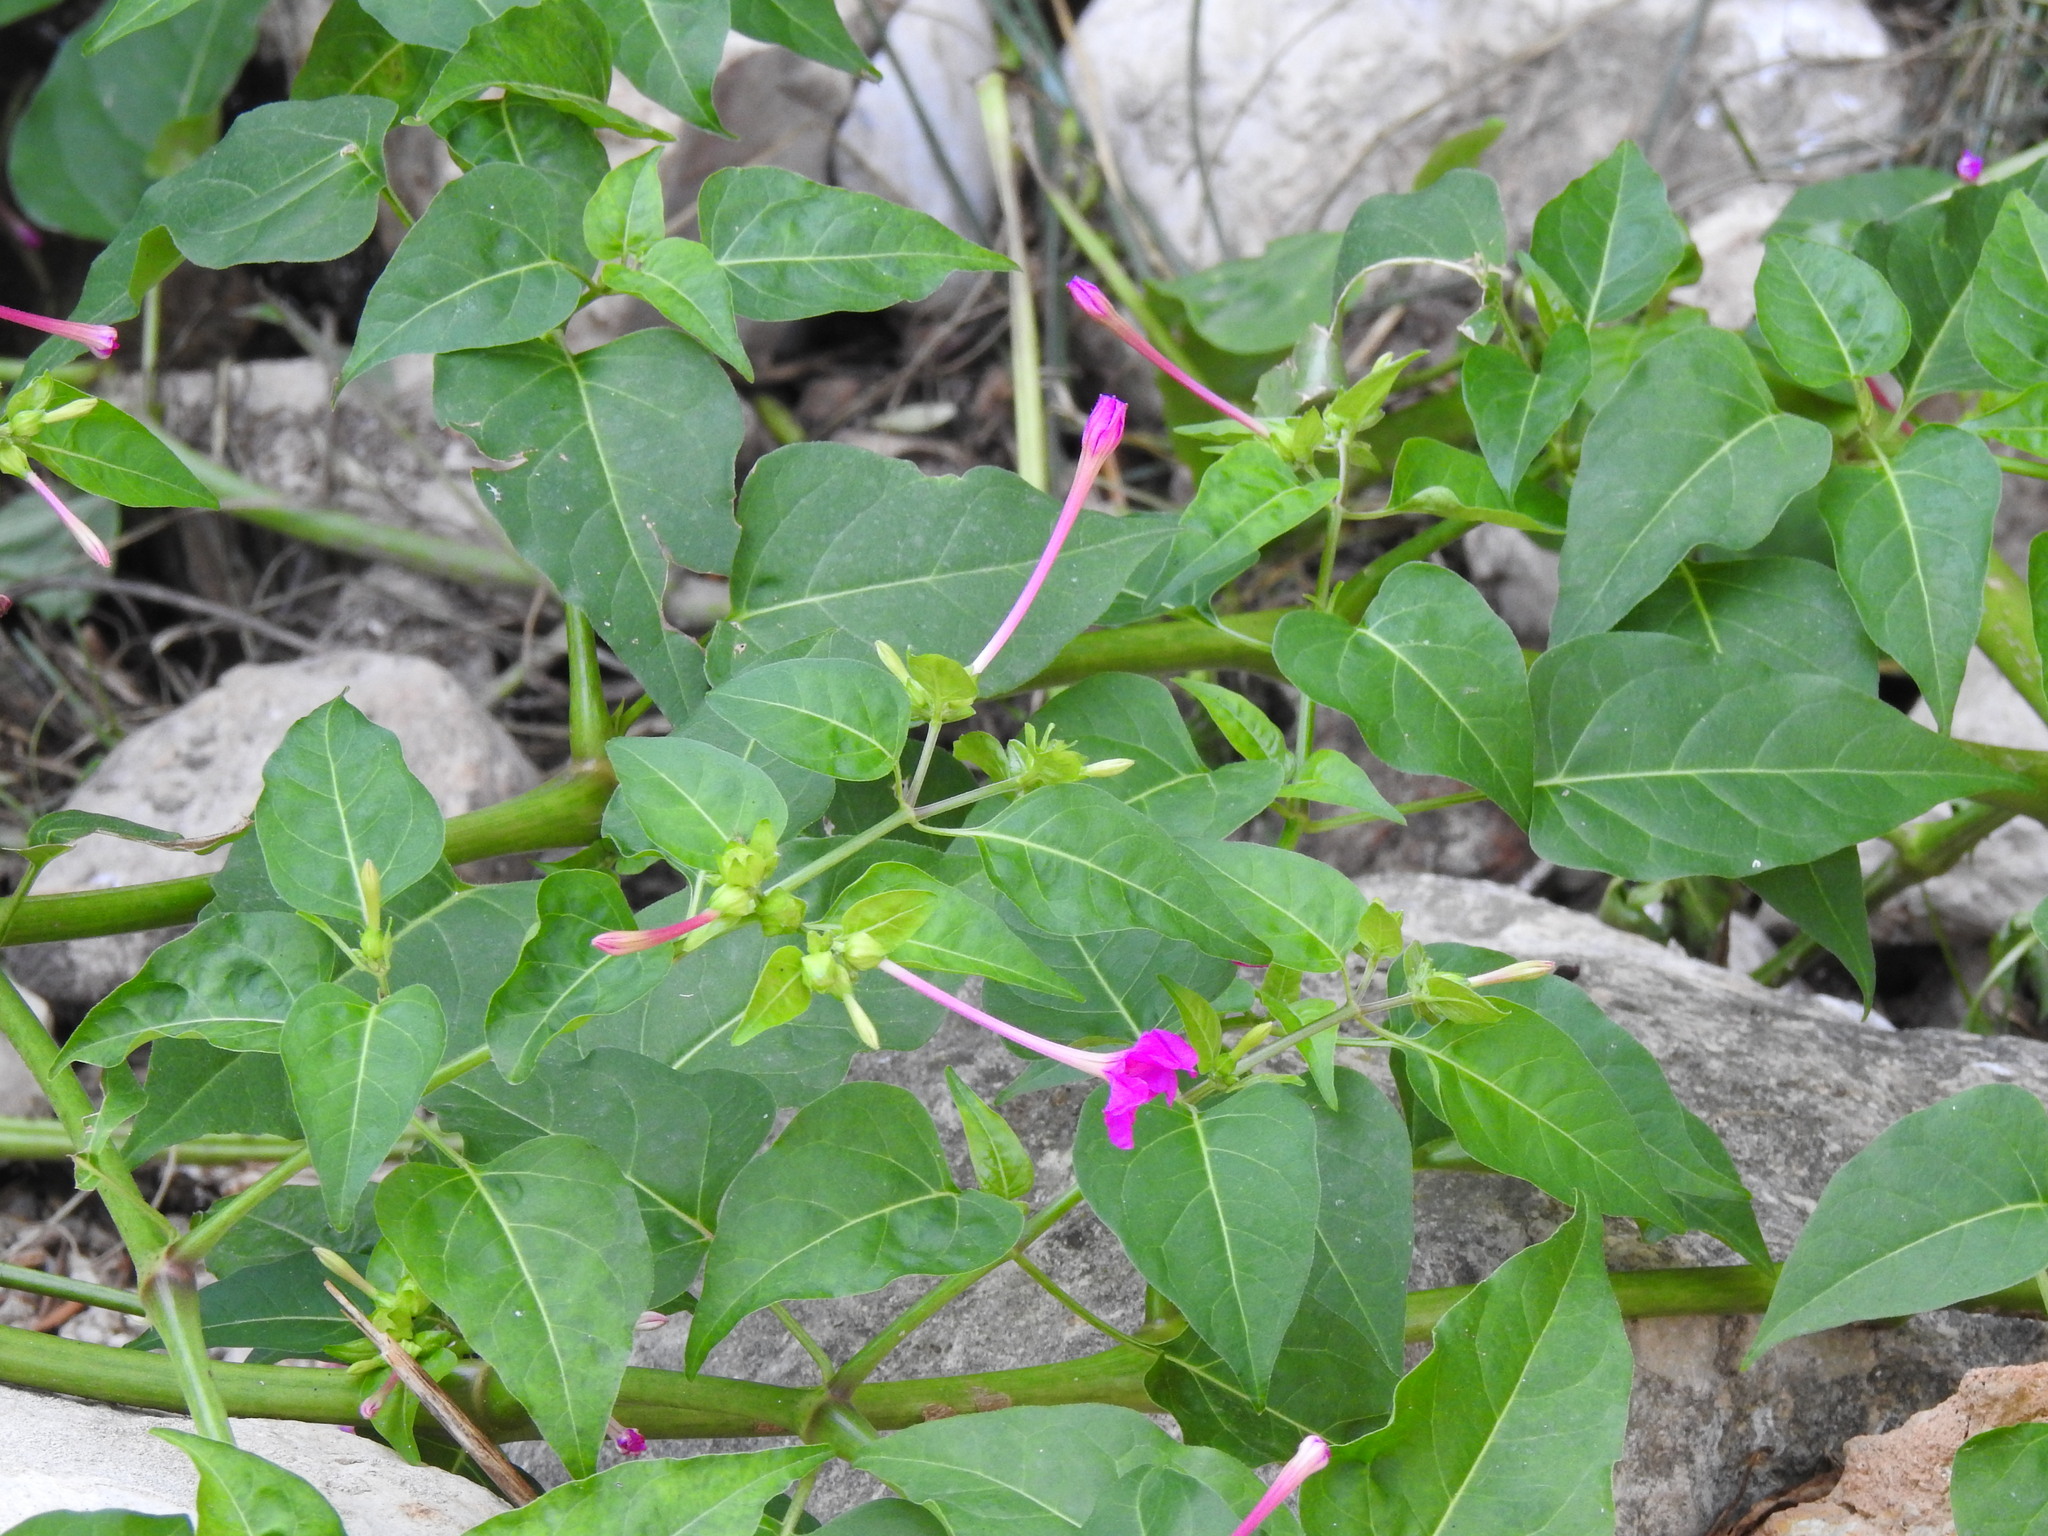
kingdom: Plantae
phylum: Tracheophyta
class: Magnoliopsida
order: Caryophyllales
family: Nyctaginaceae
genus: Mirabilis
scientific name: Mirabilis jalapa
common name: Marvel-of-peru
